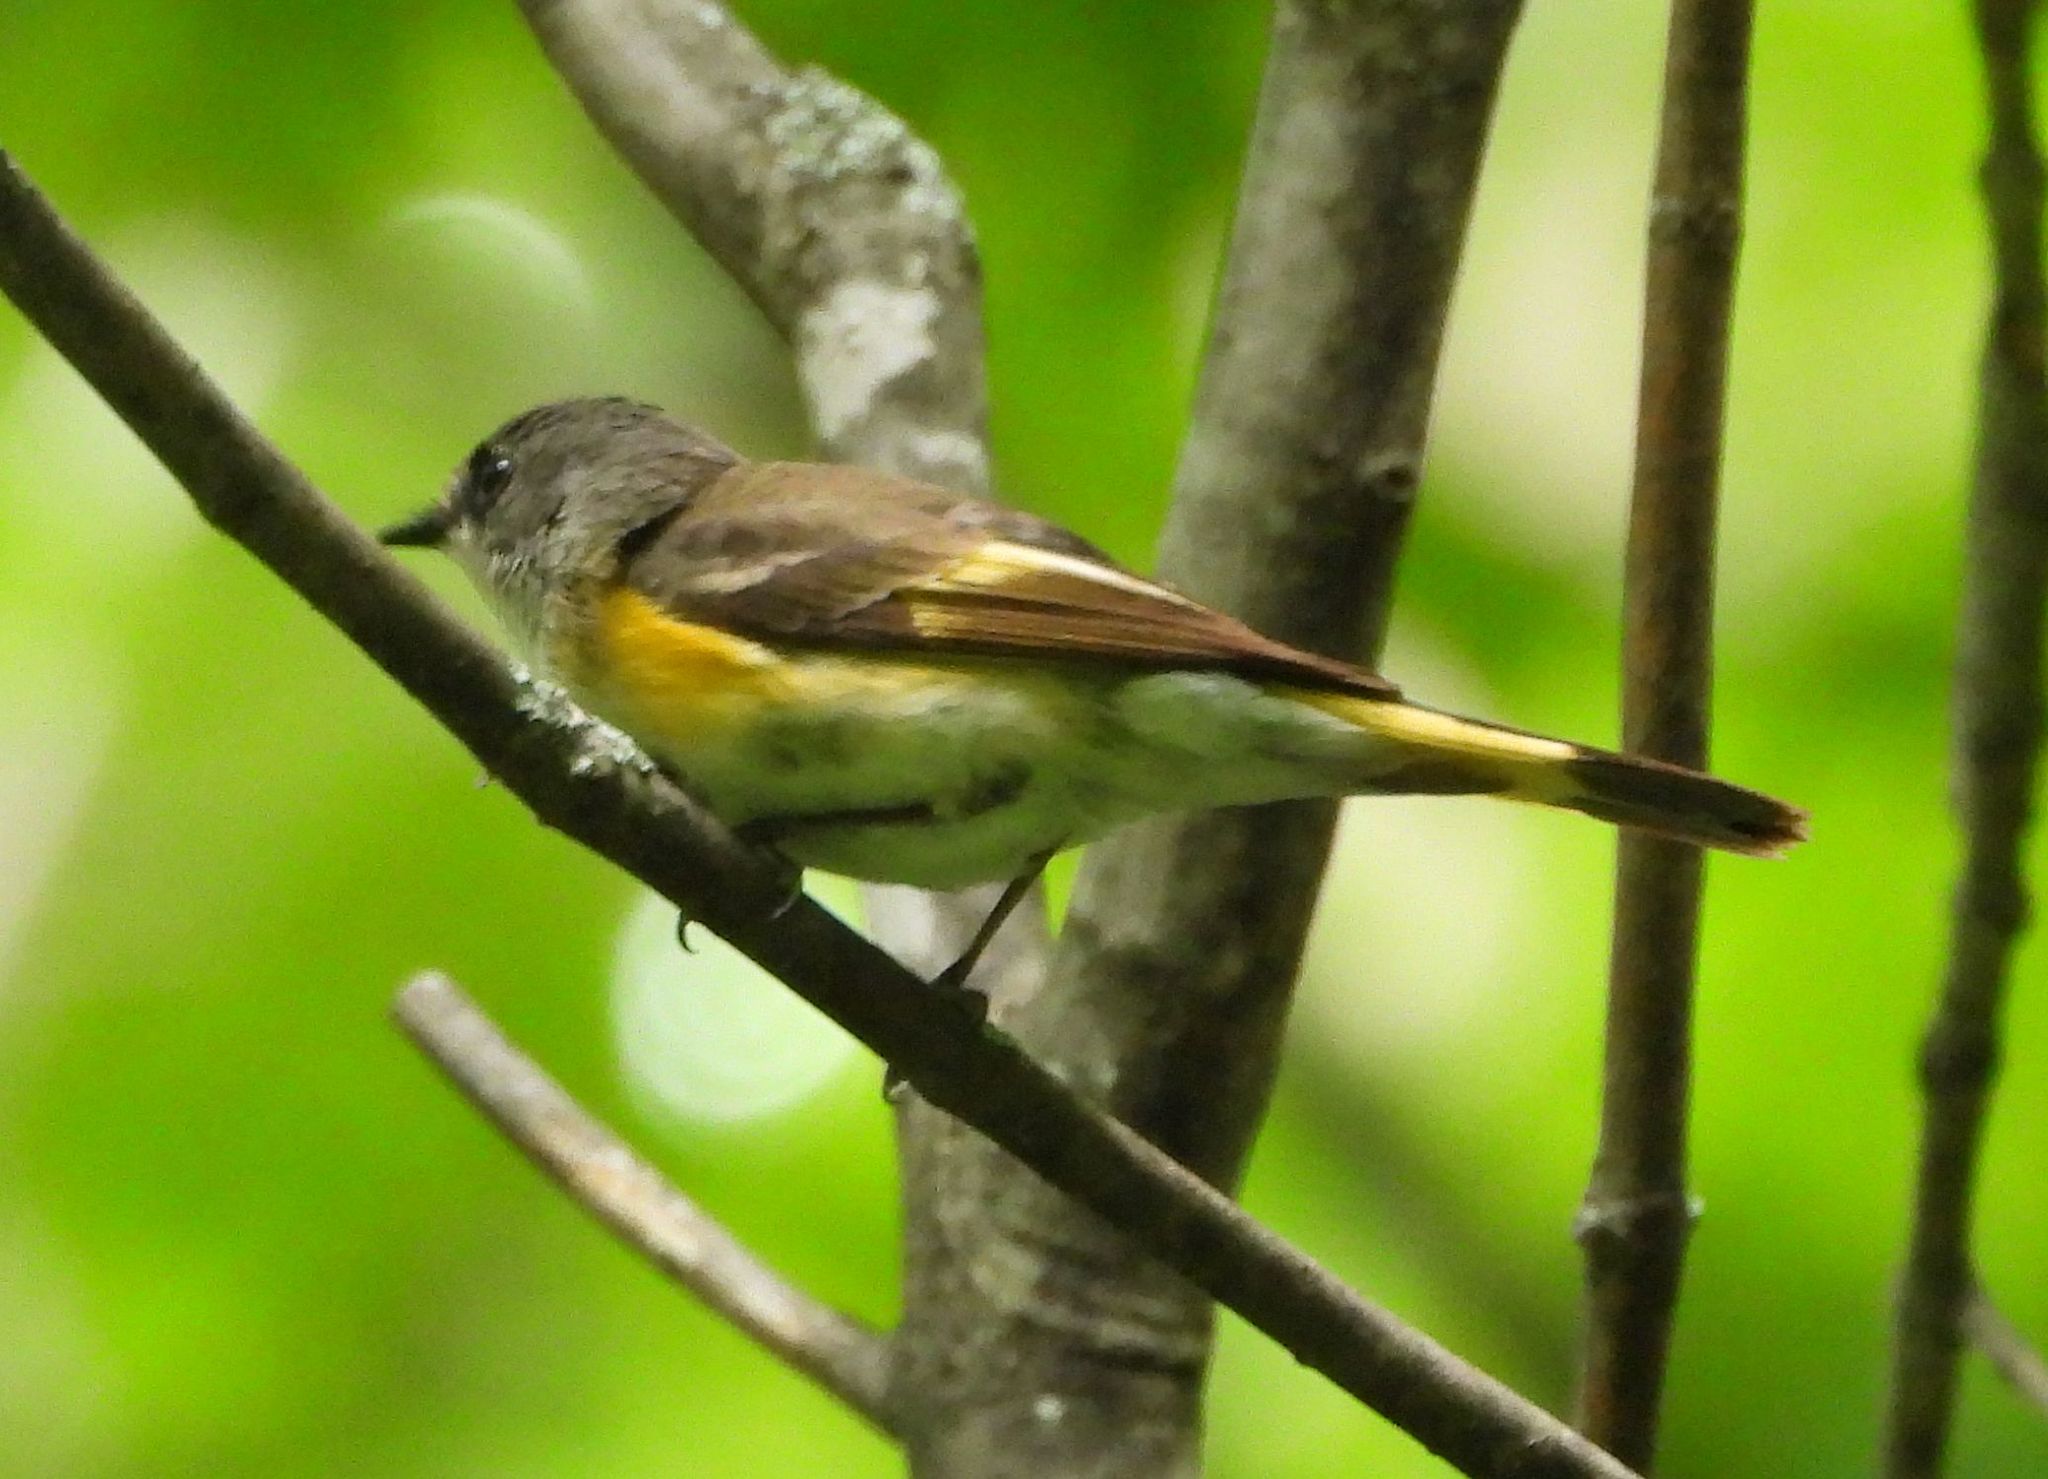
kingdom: Animalia
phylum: Chordata
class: Aves
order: Passeriformes
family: Parulidae
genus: Setophaga
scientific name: Setophaga ruticilla
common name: American redstart
